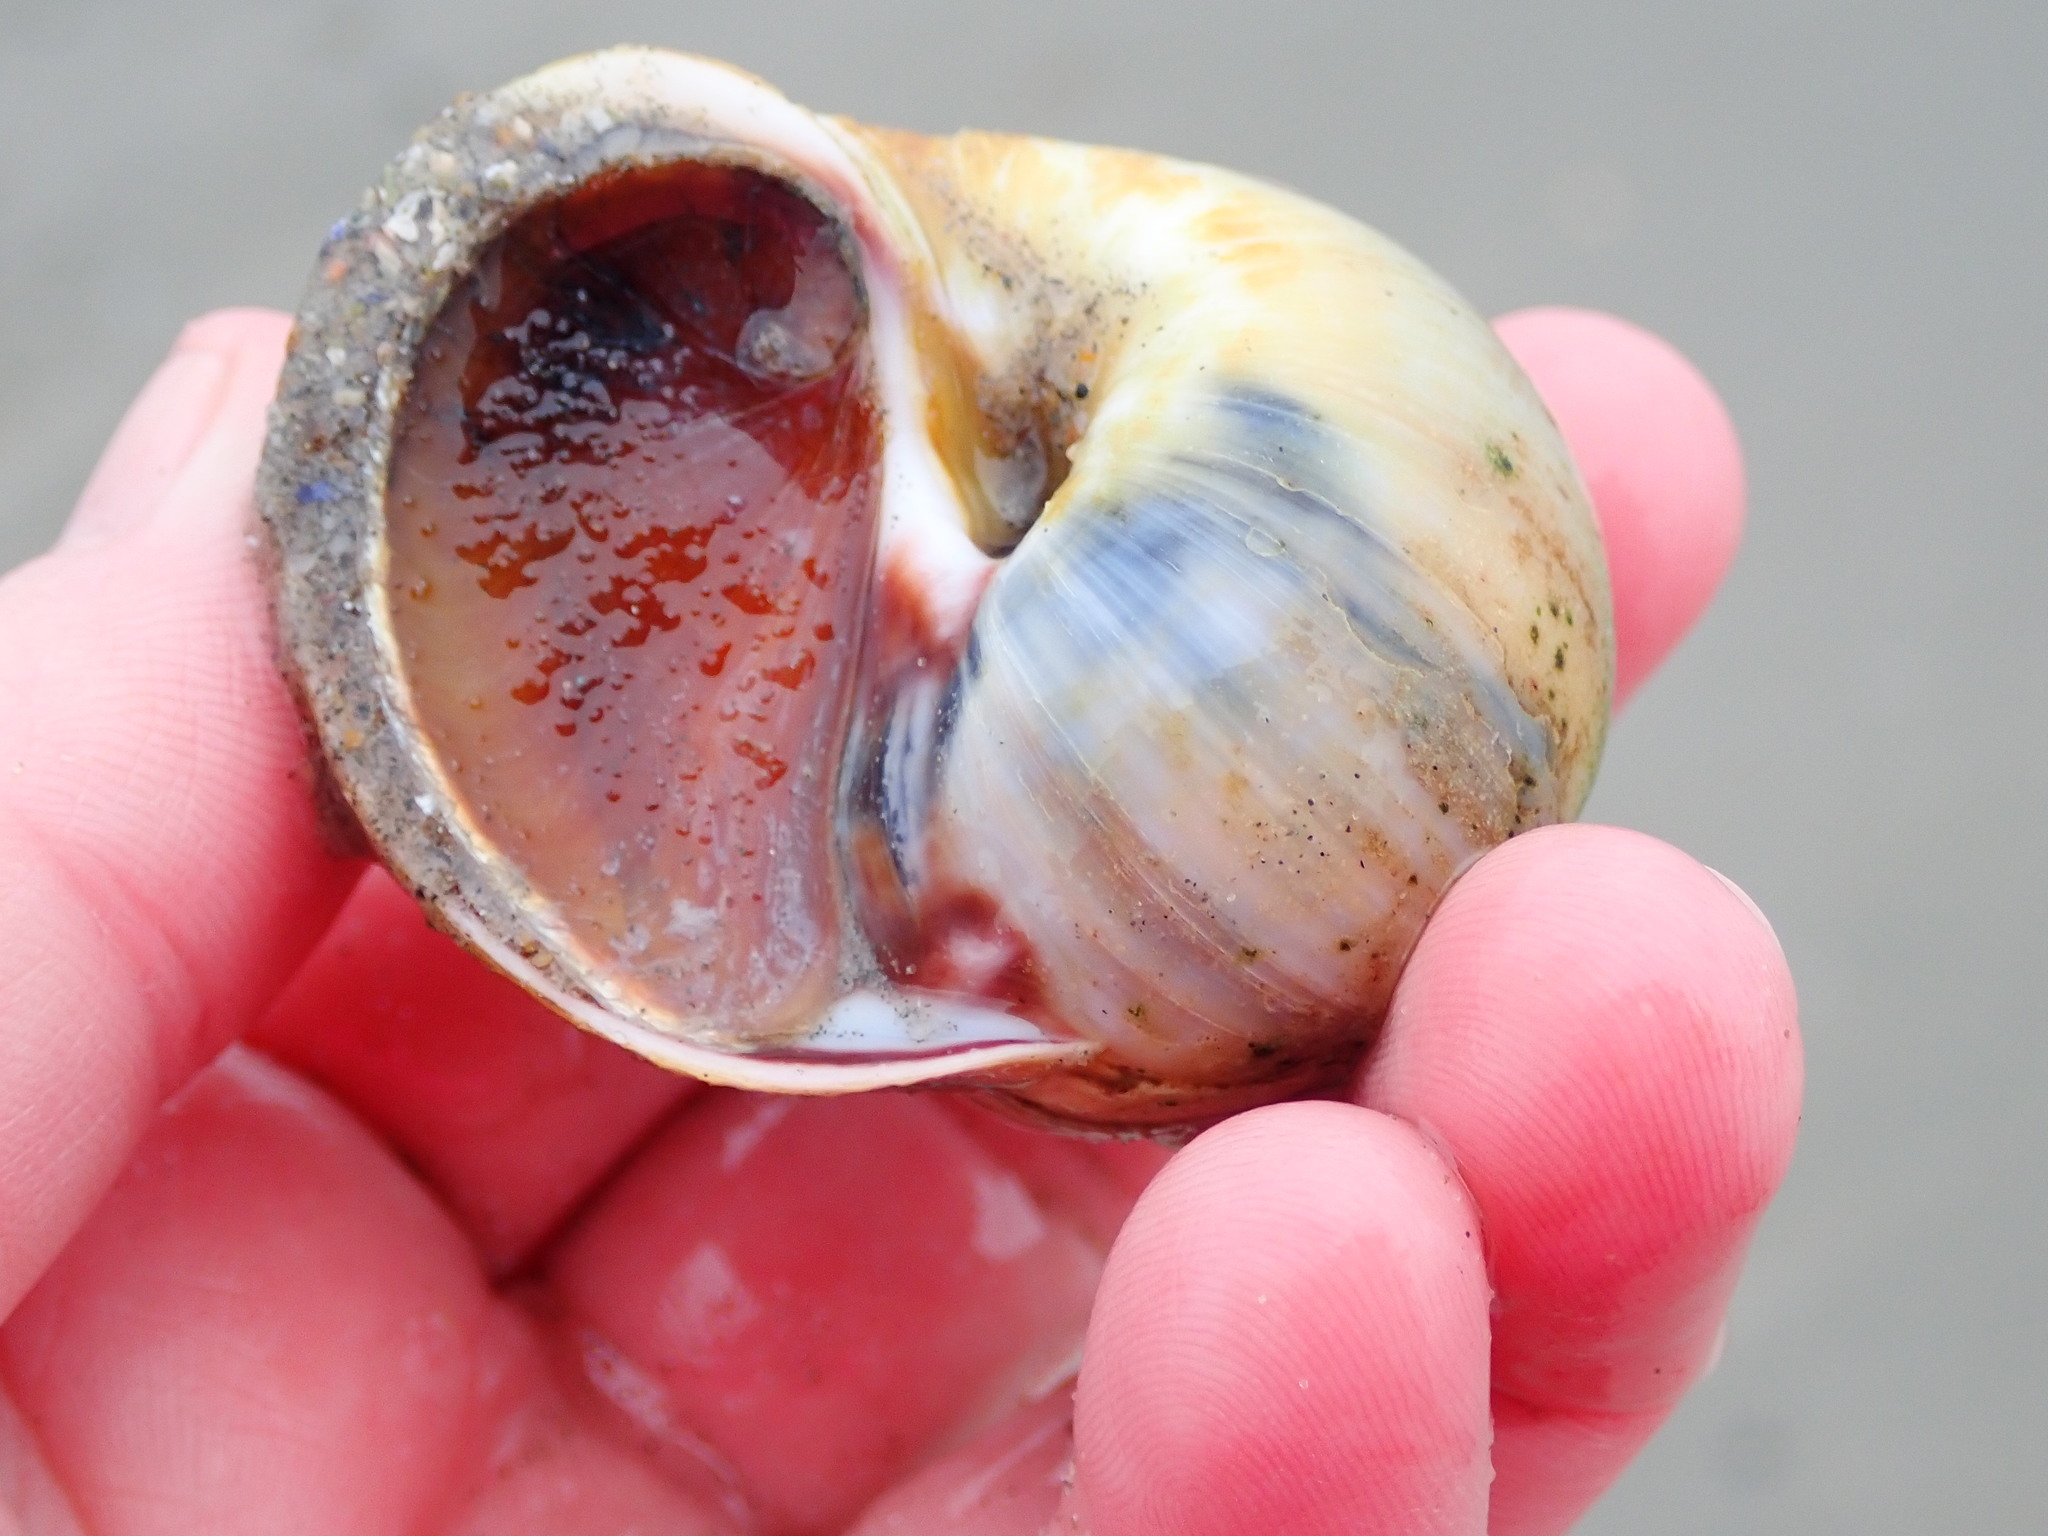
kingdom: Animalia
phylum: Mollusca
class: Gastropoda
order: Littorinimorpha
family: Naticidae
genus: Euspira
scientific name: Euspira heros
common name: Common northern moonsnail
